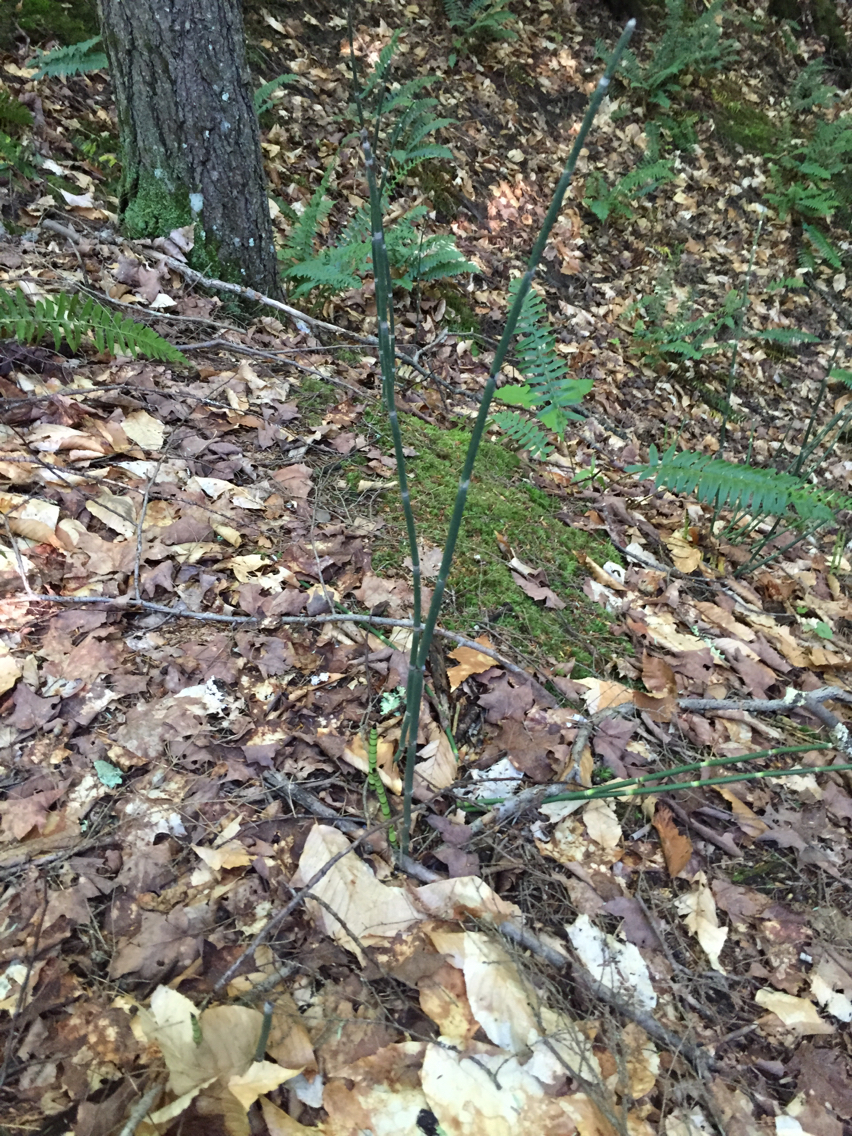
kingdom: Plantae
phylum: Tracheophyta
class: Polypodiopsida
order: Equisetales
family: Equisetaceae
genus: Equisetum
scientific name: Equisetum hyemale
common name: Rough horsetail
